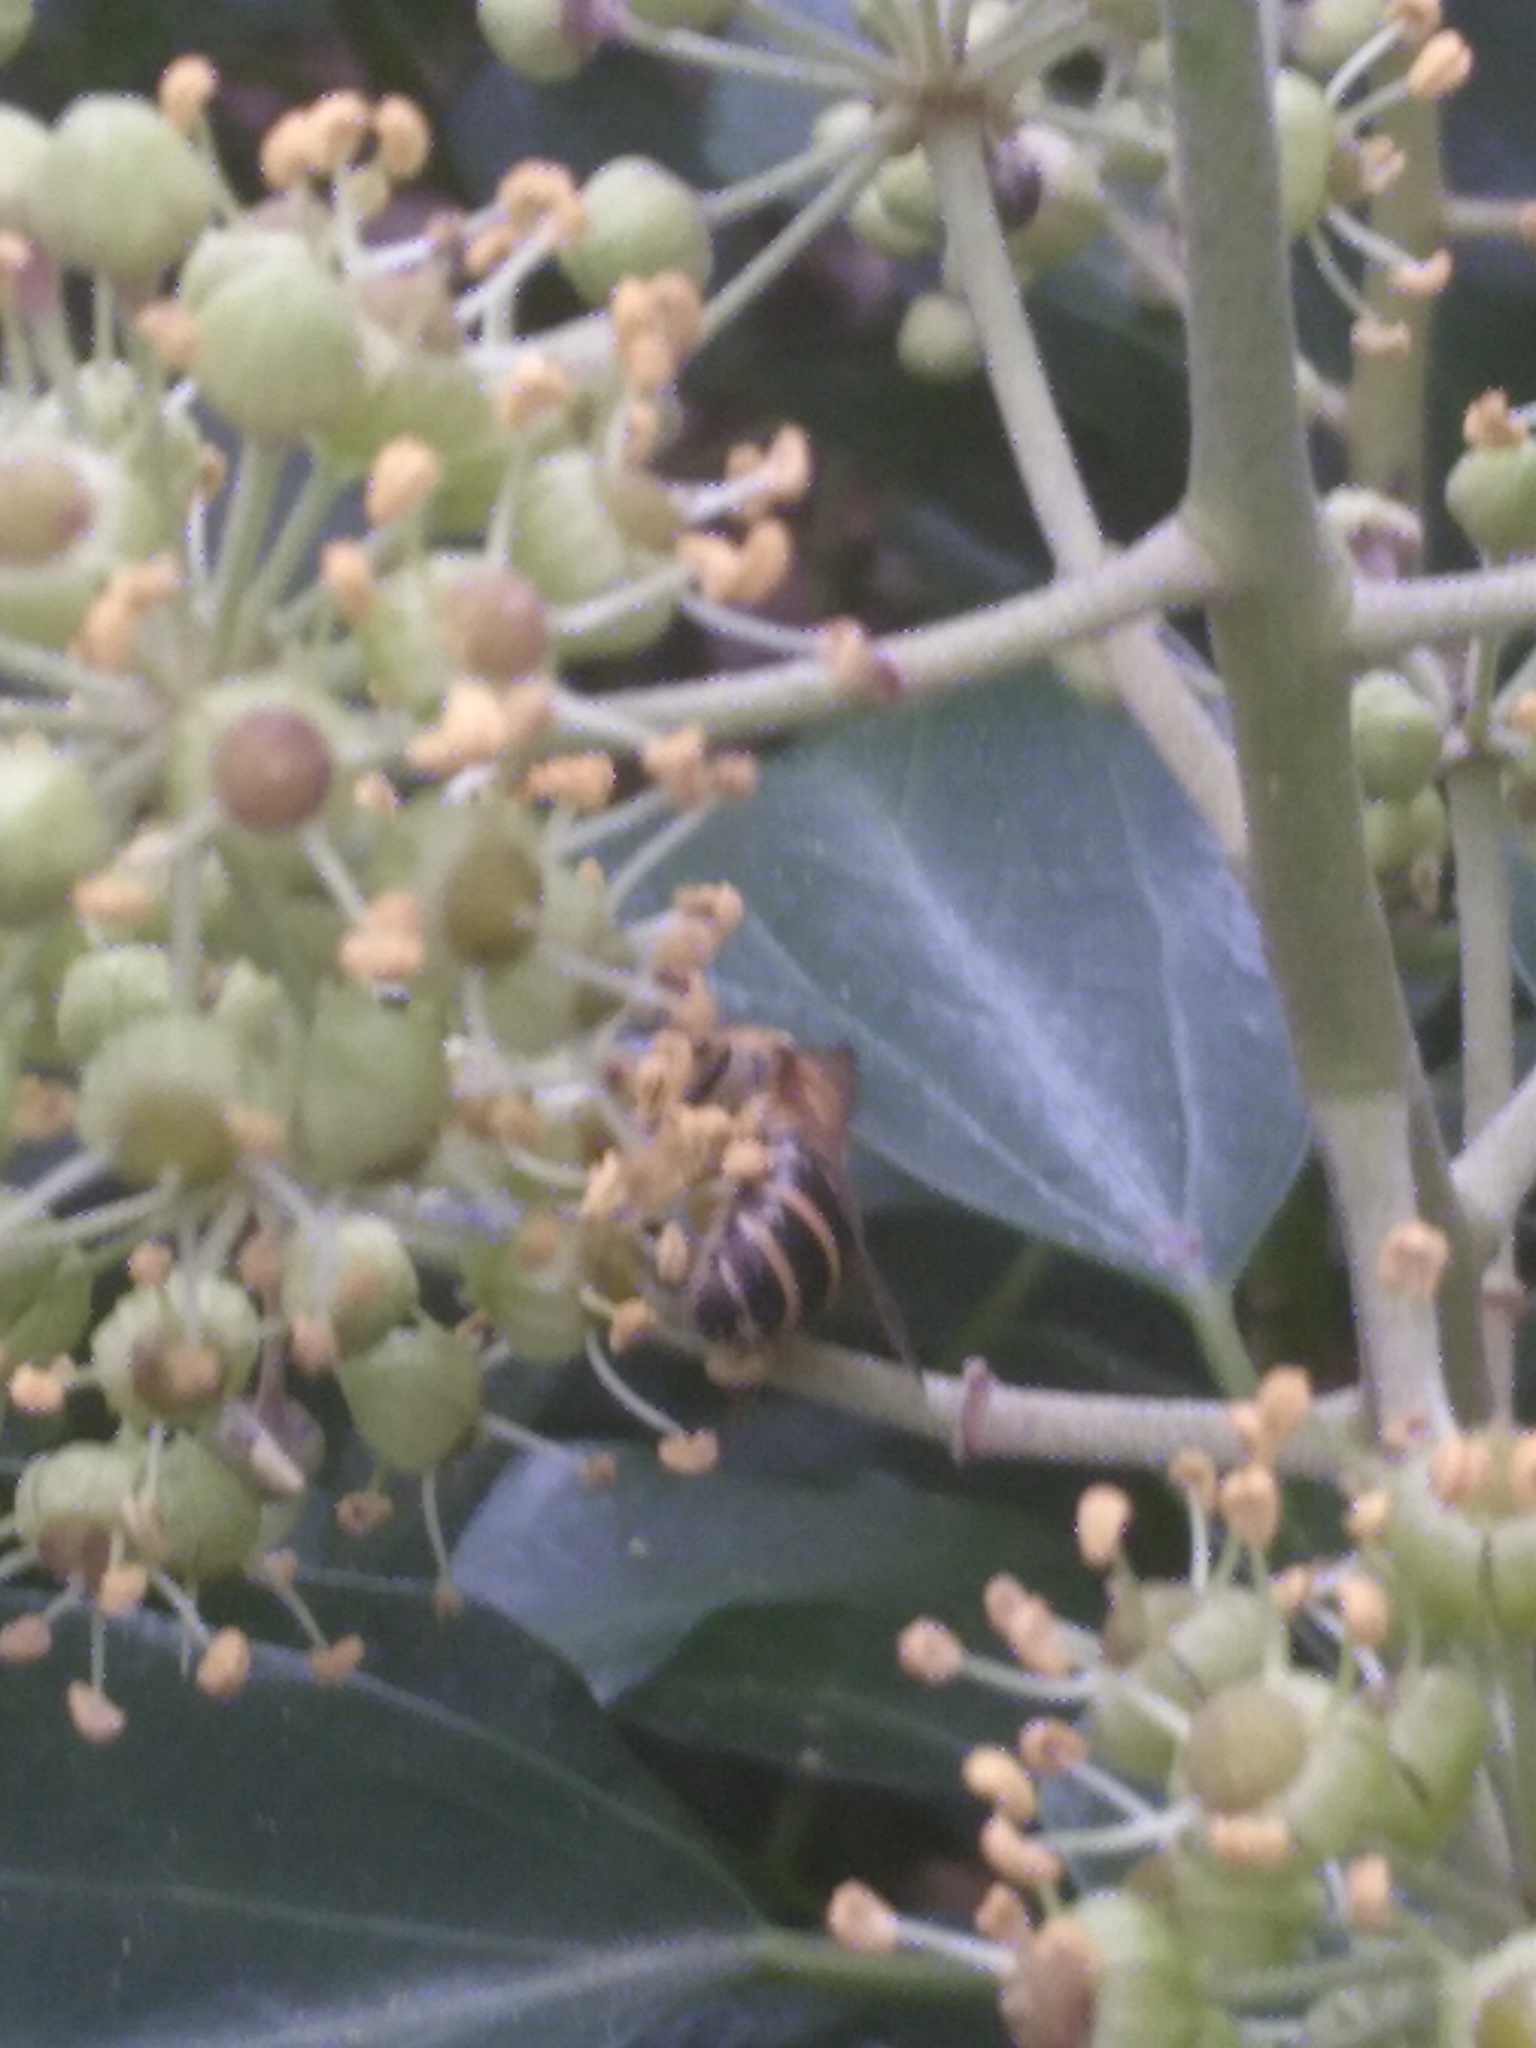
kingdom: Animalia
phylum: Arthropoda
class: Insecta
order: Hymenoptera
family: Colletidae
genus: Colletes
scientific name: Colletes hederae
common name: Ivy bee
